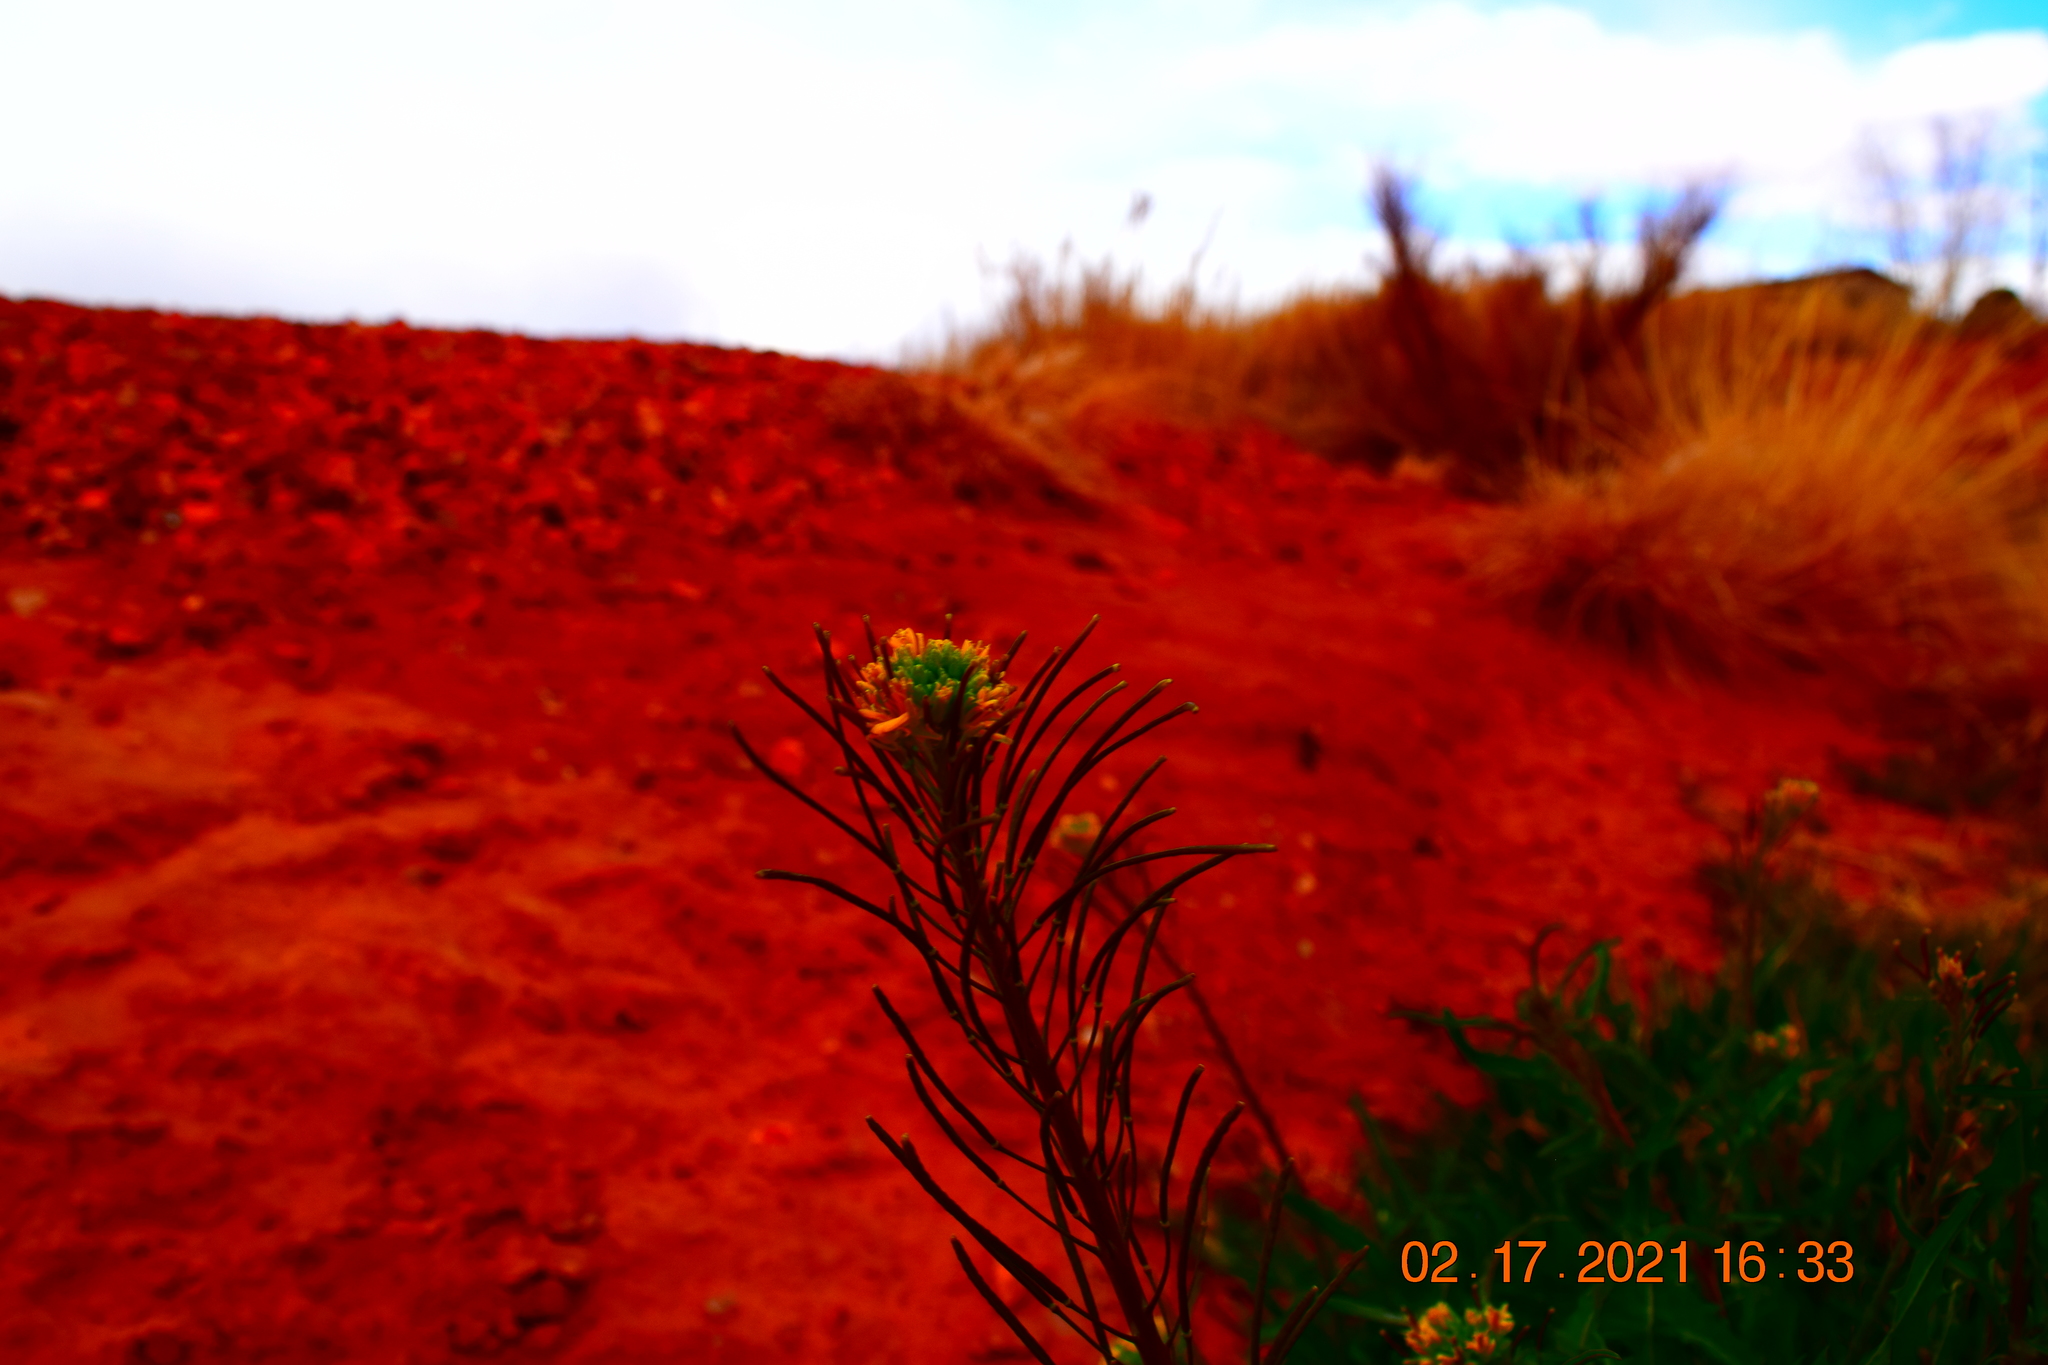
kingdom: Plantae
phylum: Tracheophyta
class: Magnoliopsida
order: Brassicales
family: Brassicaceae
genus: Sisymbrium
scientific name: Sisymbrium irio
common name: London rocket
